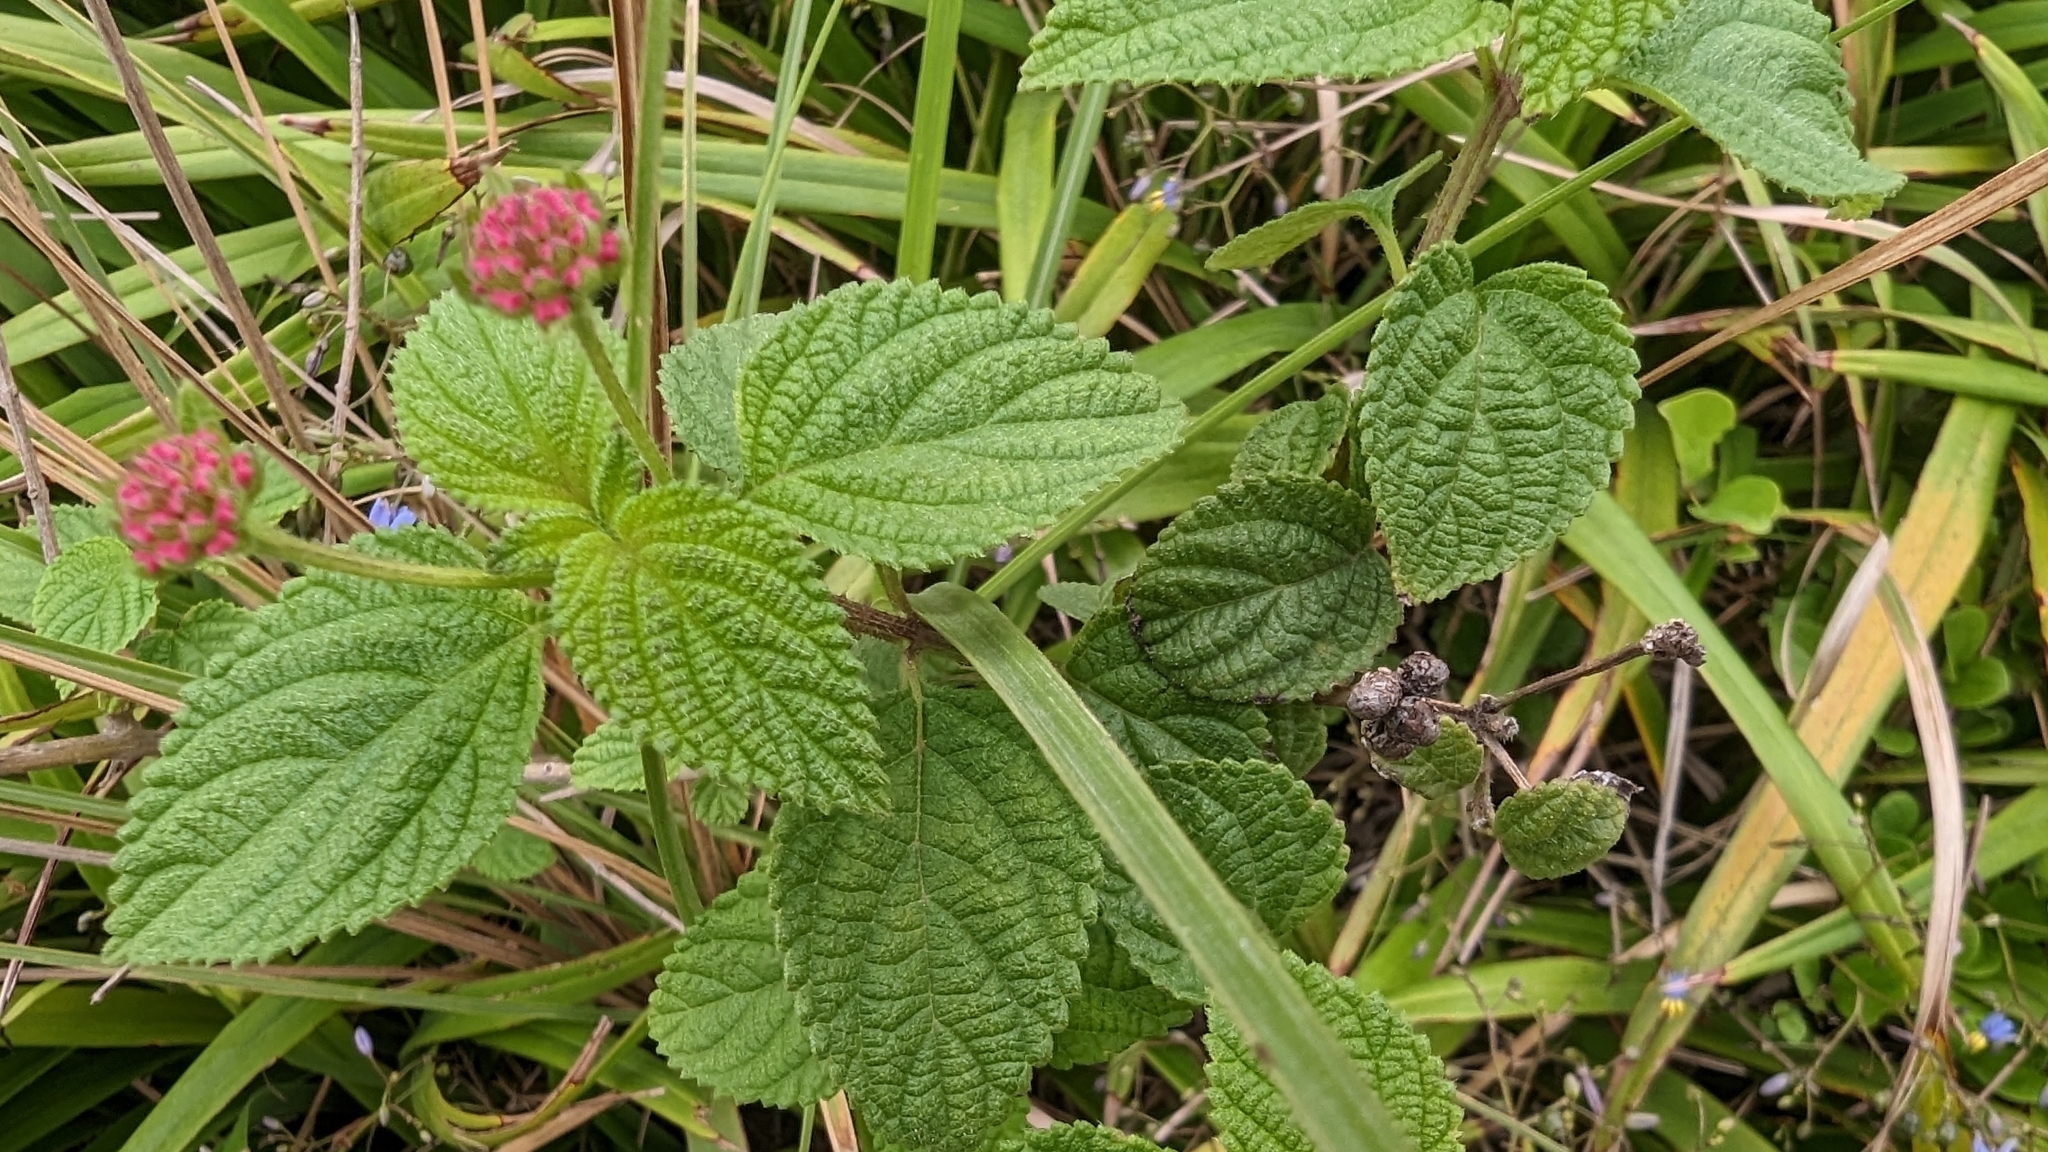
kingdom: Plantae
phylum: Tracheophyta
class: Magnoliopsida
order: Lamiales
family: Verbenaceae
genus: Lantana
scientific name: Lantana camara
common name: Lantana
